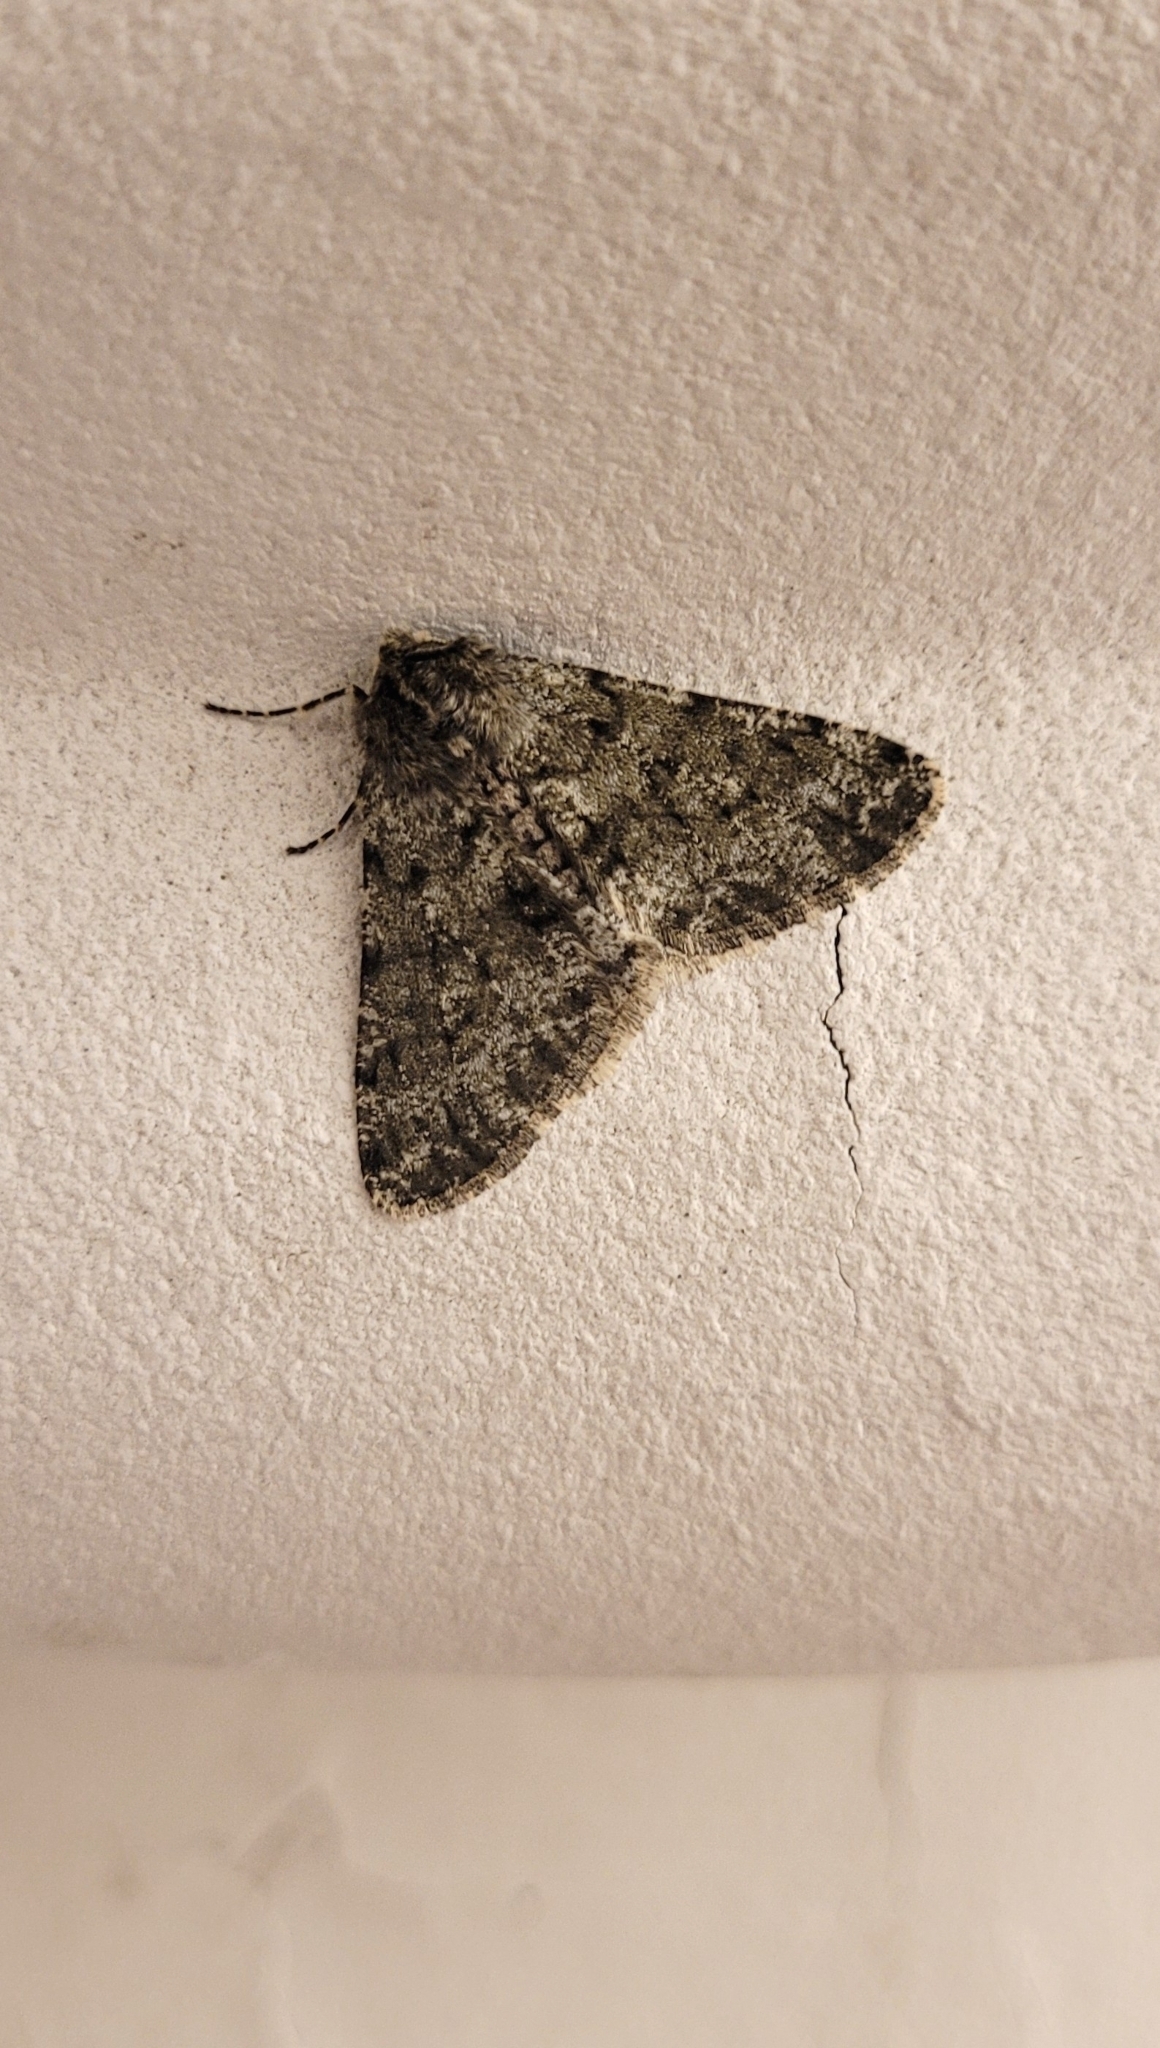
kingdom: Animalia
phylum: Arthropoda
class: Insecta
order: Lepidoptera
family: Geometridae
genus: Phigalia
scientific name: Phigalia pilosaria
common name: Pale brindled beauty
